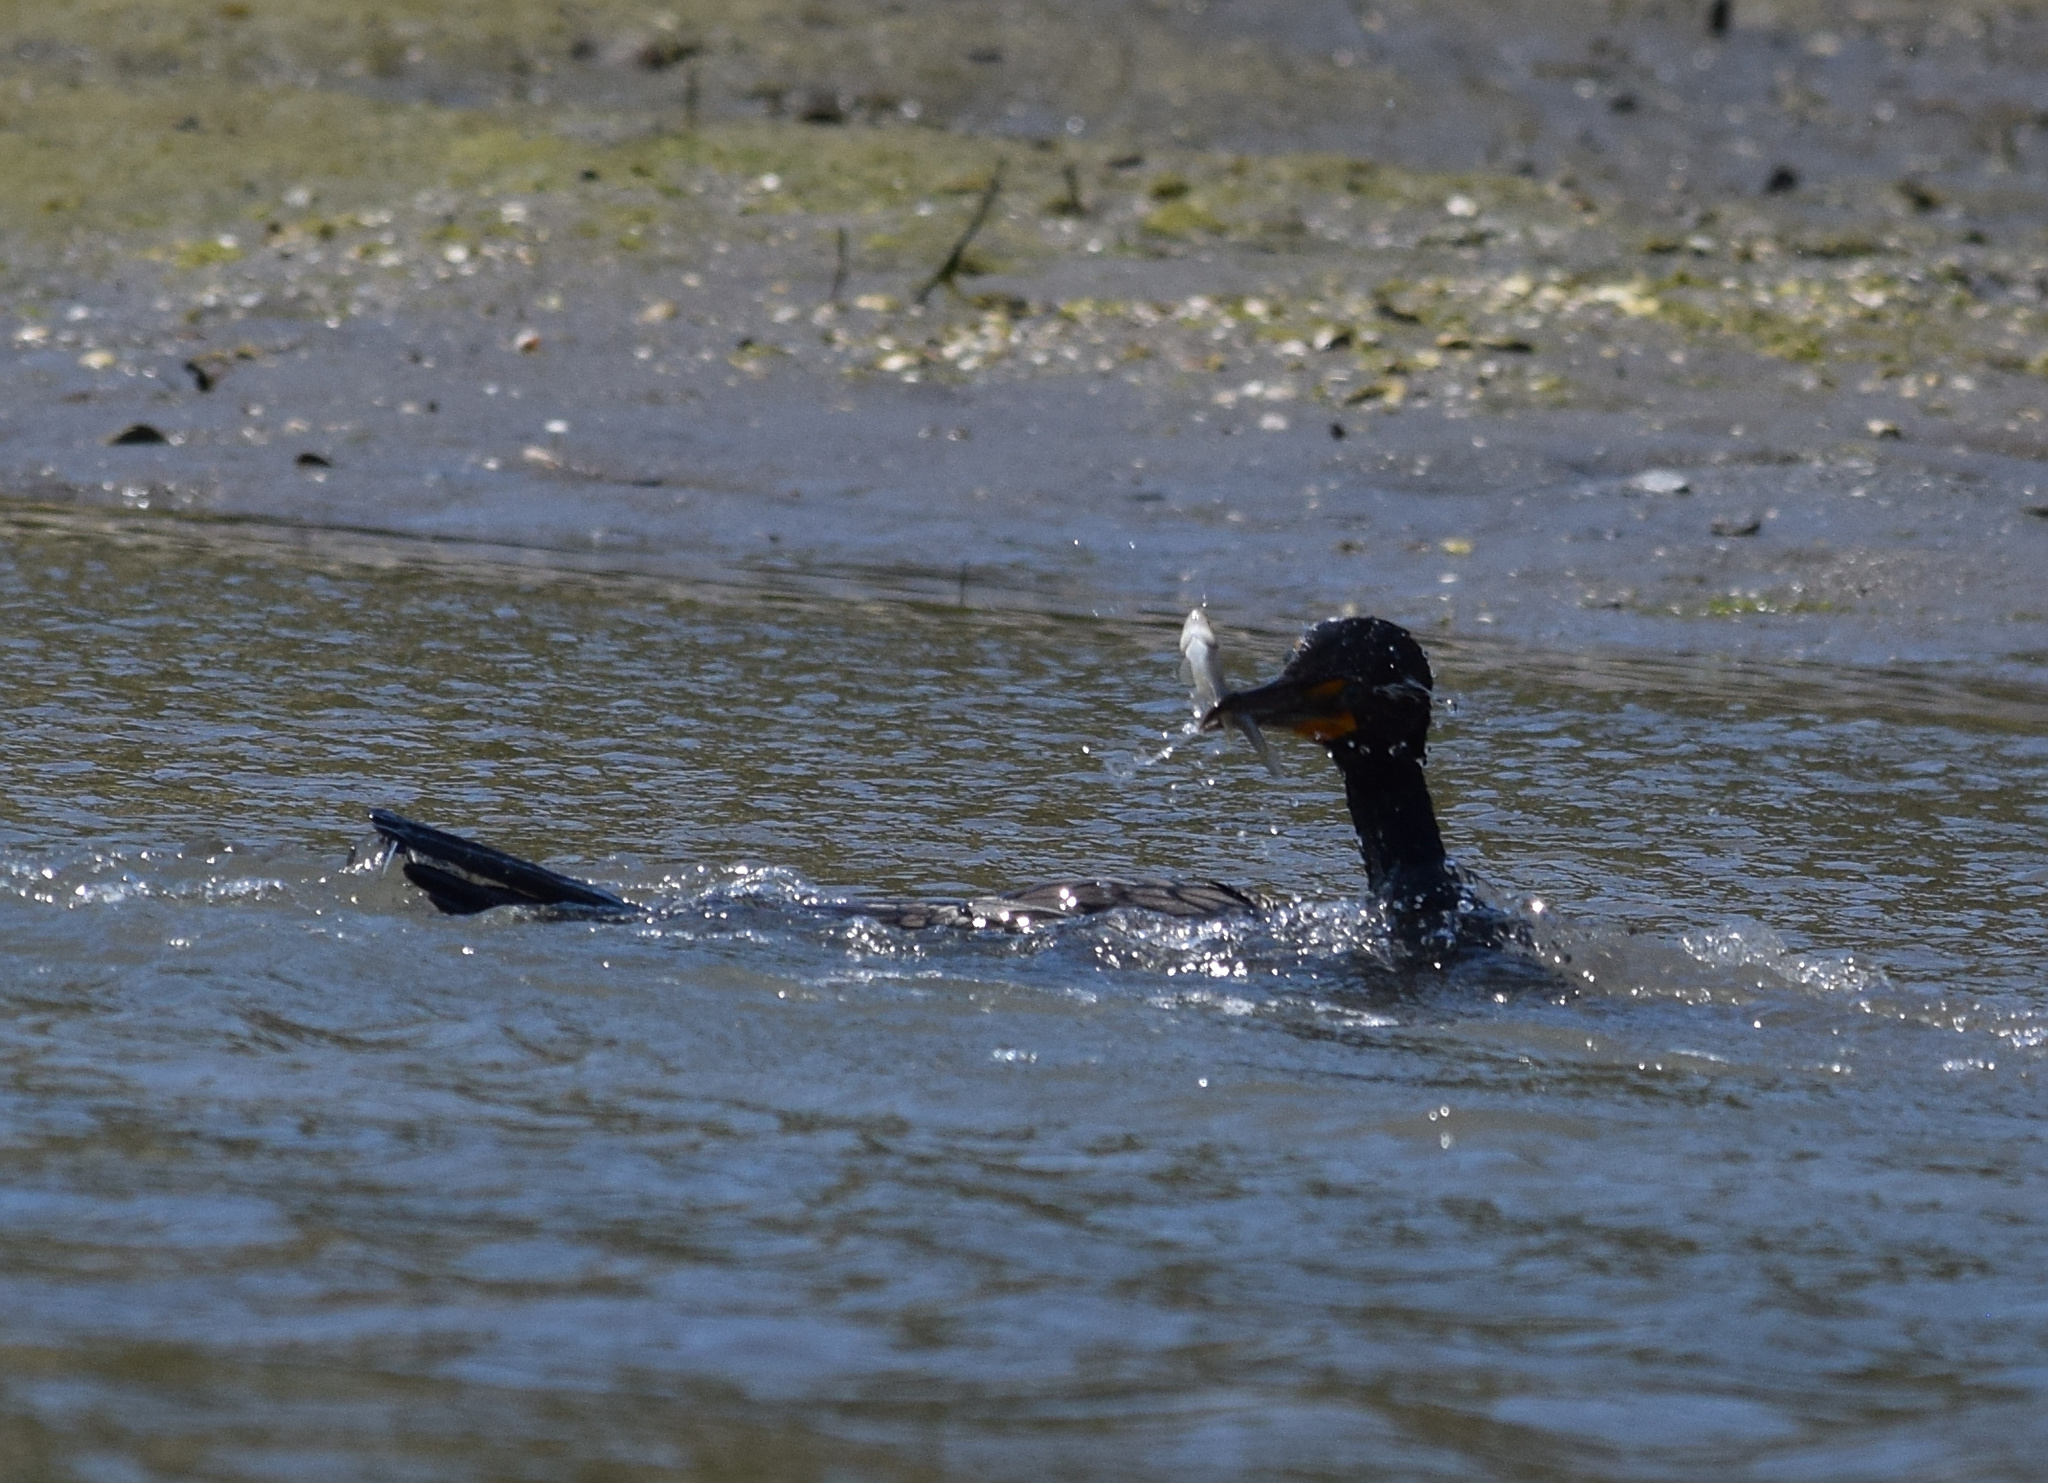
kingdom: Animalia
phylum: Chordata
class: Aves
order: Pelecaniformes
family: Ardeidae
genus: Egretta
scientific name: Egretta thula
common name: Snowy egret
